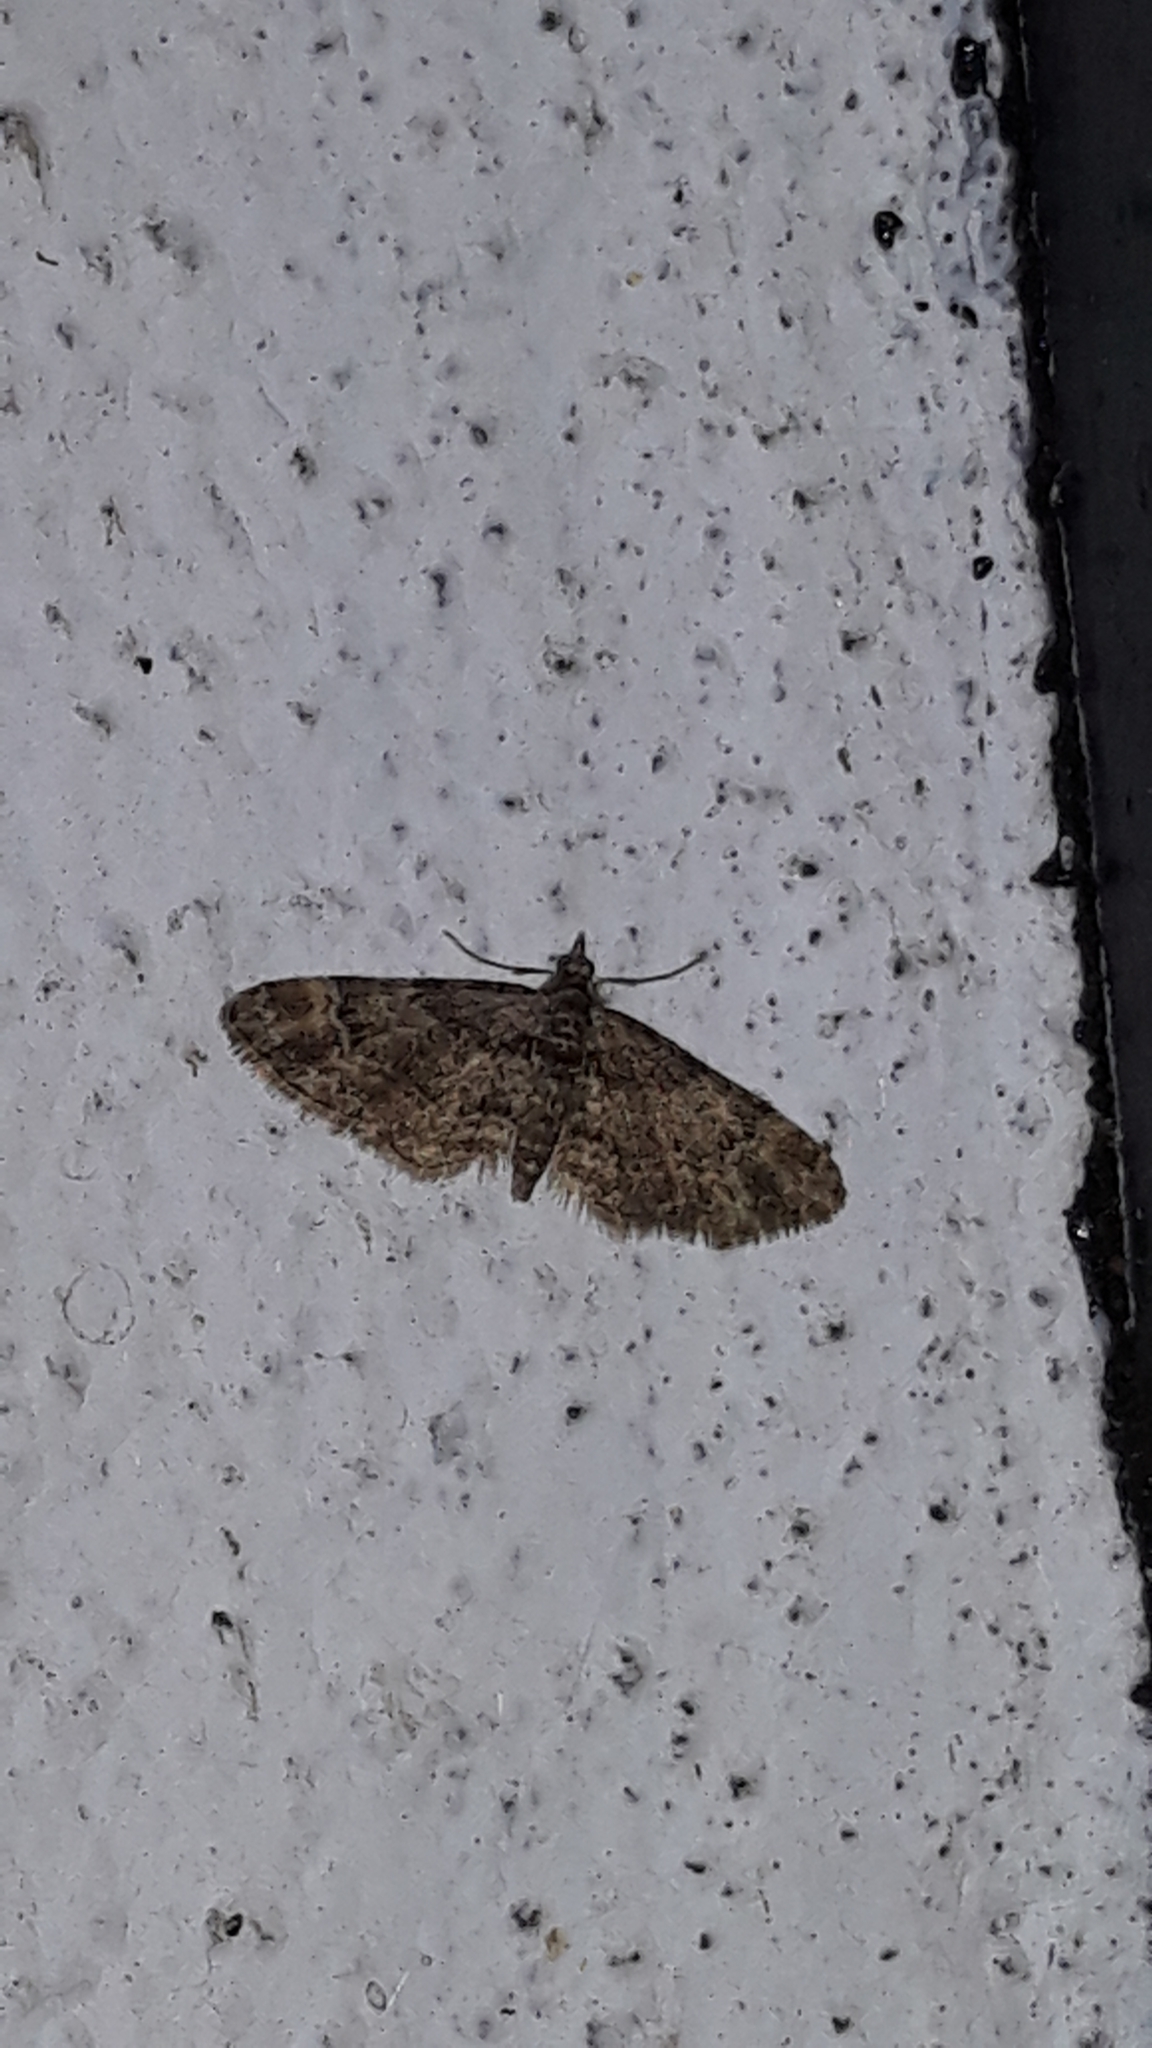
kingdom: Animalia
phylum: Arthropoda
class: Insecta
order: Lepidoptera
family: Geometridae
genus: Gymnoscelis
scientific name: Gymnoscelis rufifasciata
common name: Double-striped pug
